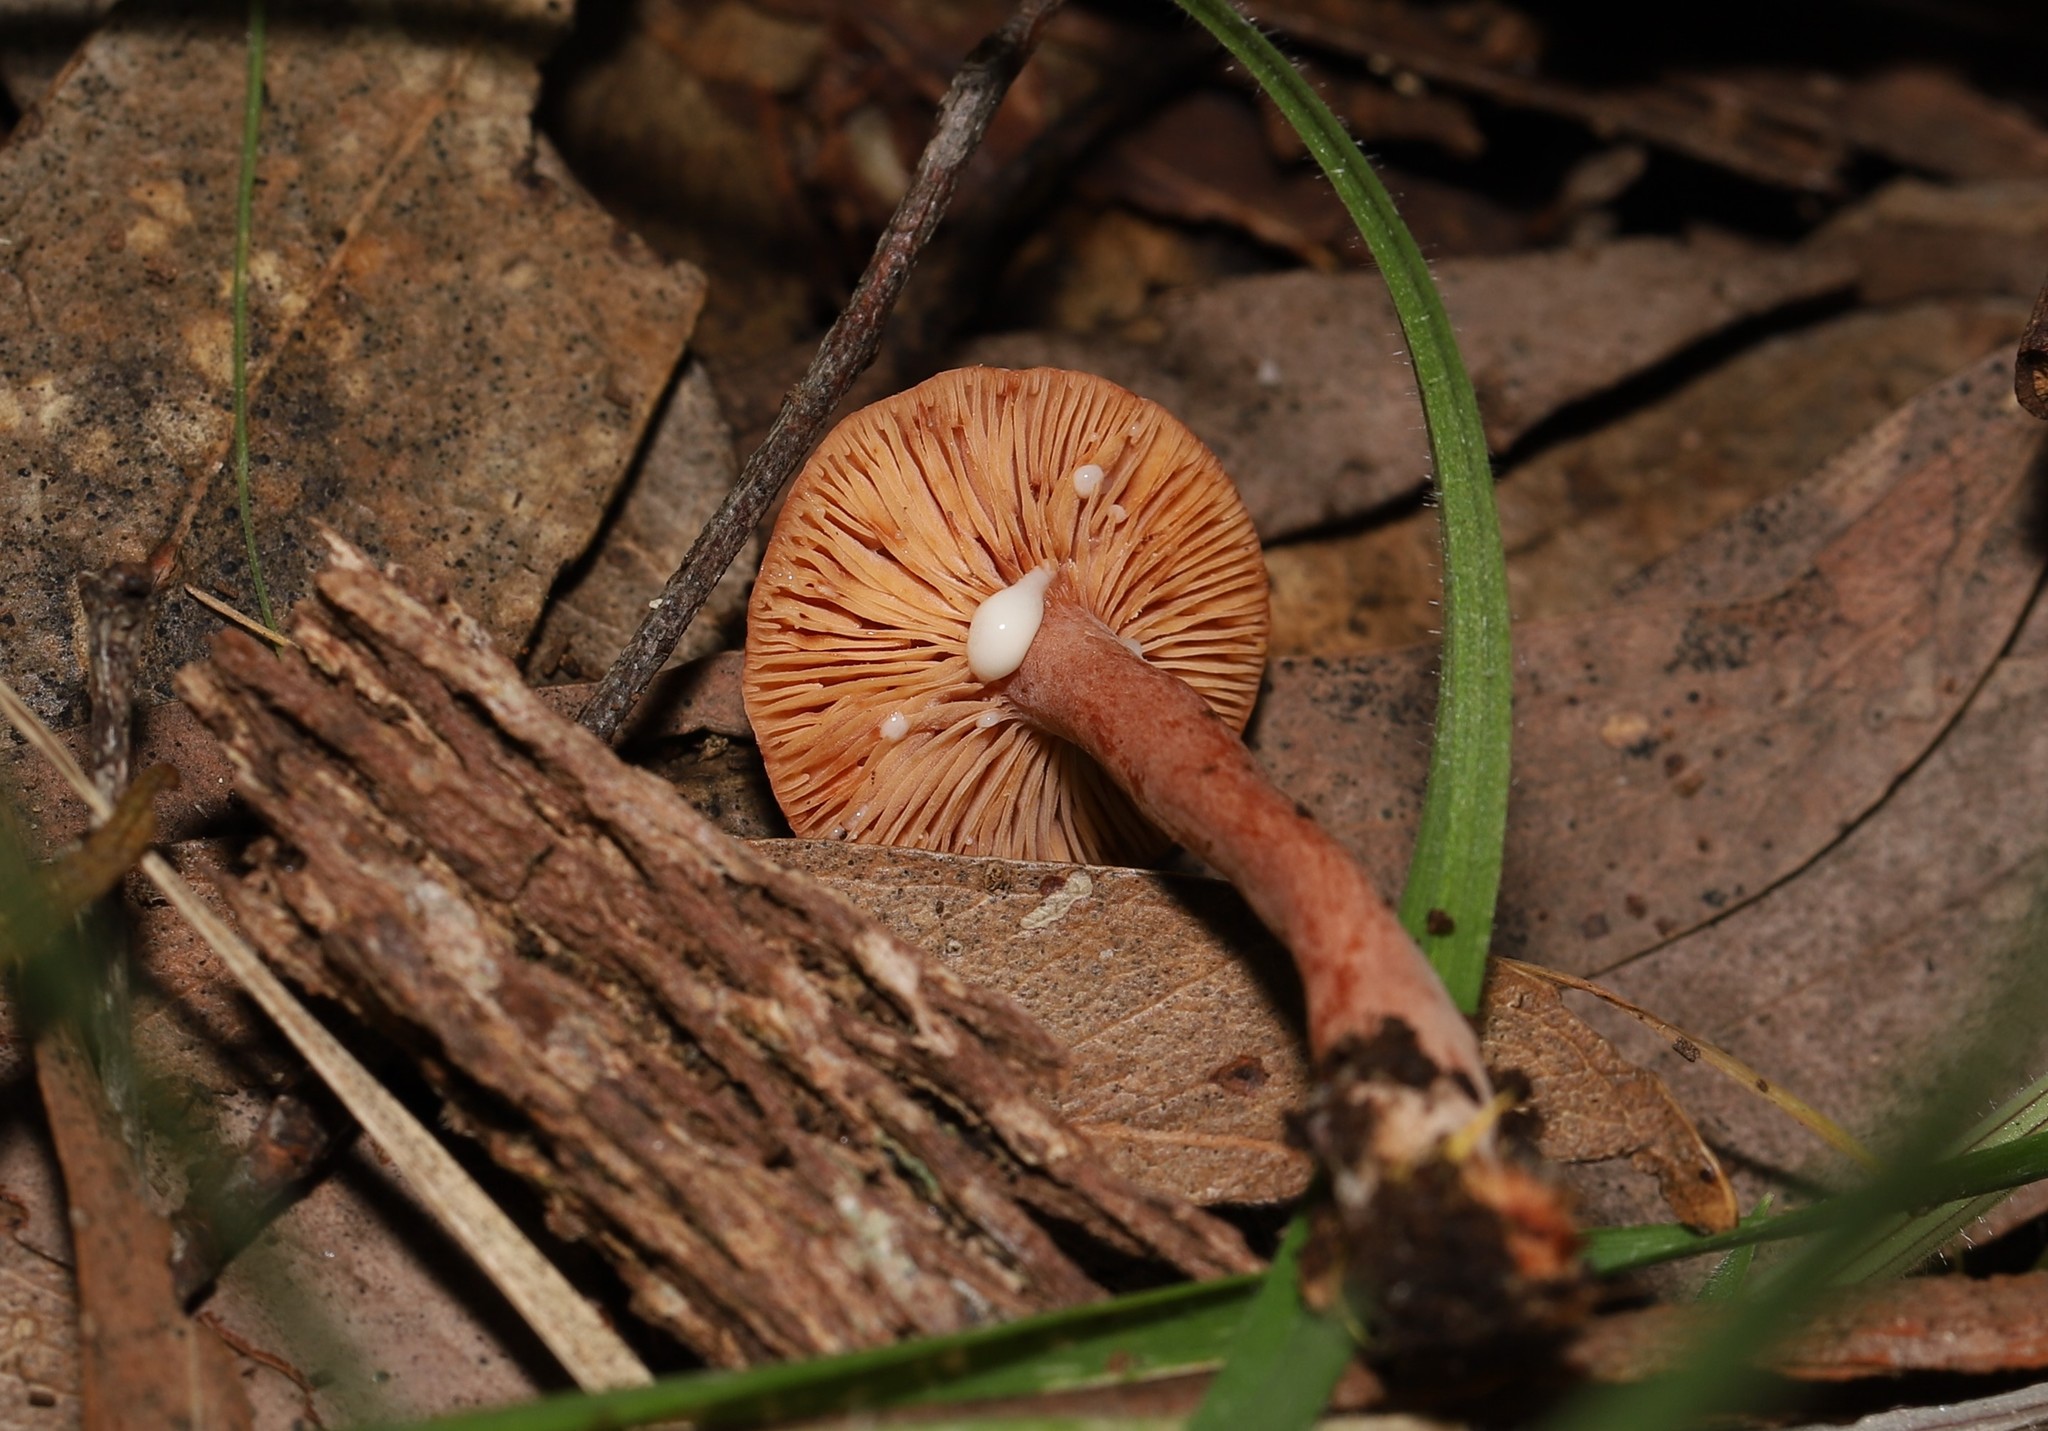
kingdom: Fungi
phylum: Basidiomycota
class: Agaricomycetes
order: Russulales
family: Russulaceae
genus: Lactarius
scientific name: Lactarius eucalypti
